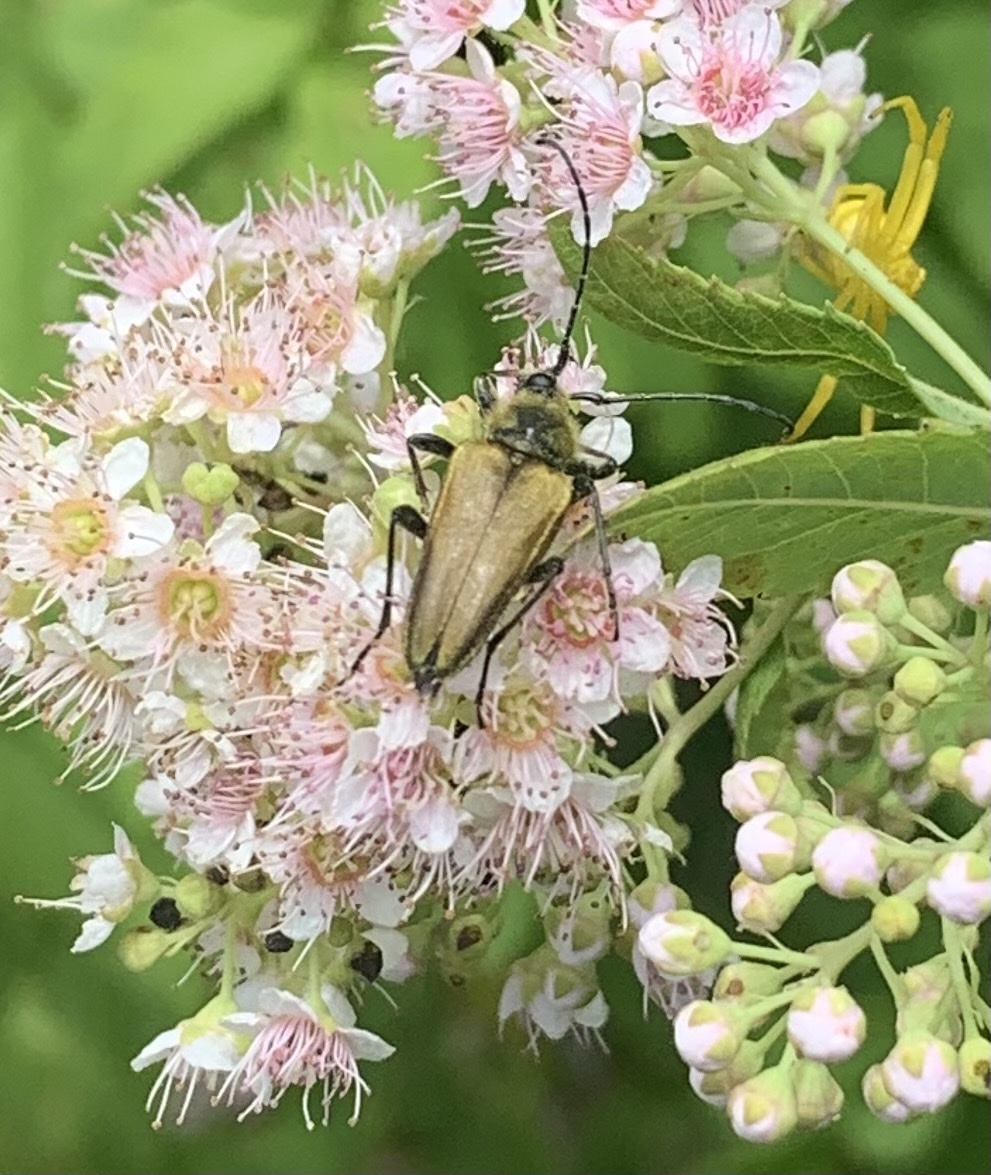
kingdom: Animalia
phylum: Arthropoda
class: Insecta
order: Coleoptera
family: Cerambycidae
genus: Cosmosalia
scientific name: Cosmosalia chrysocoma
